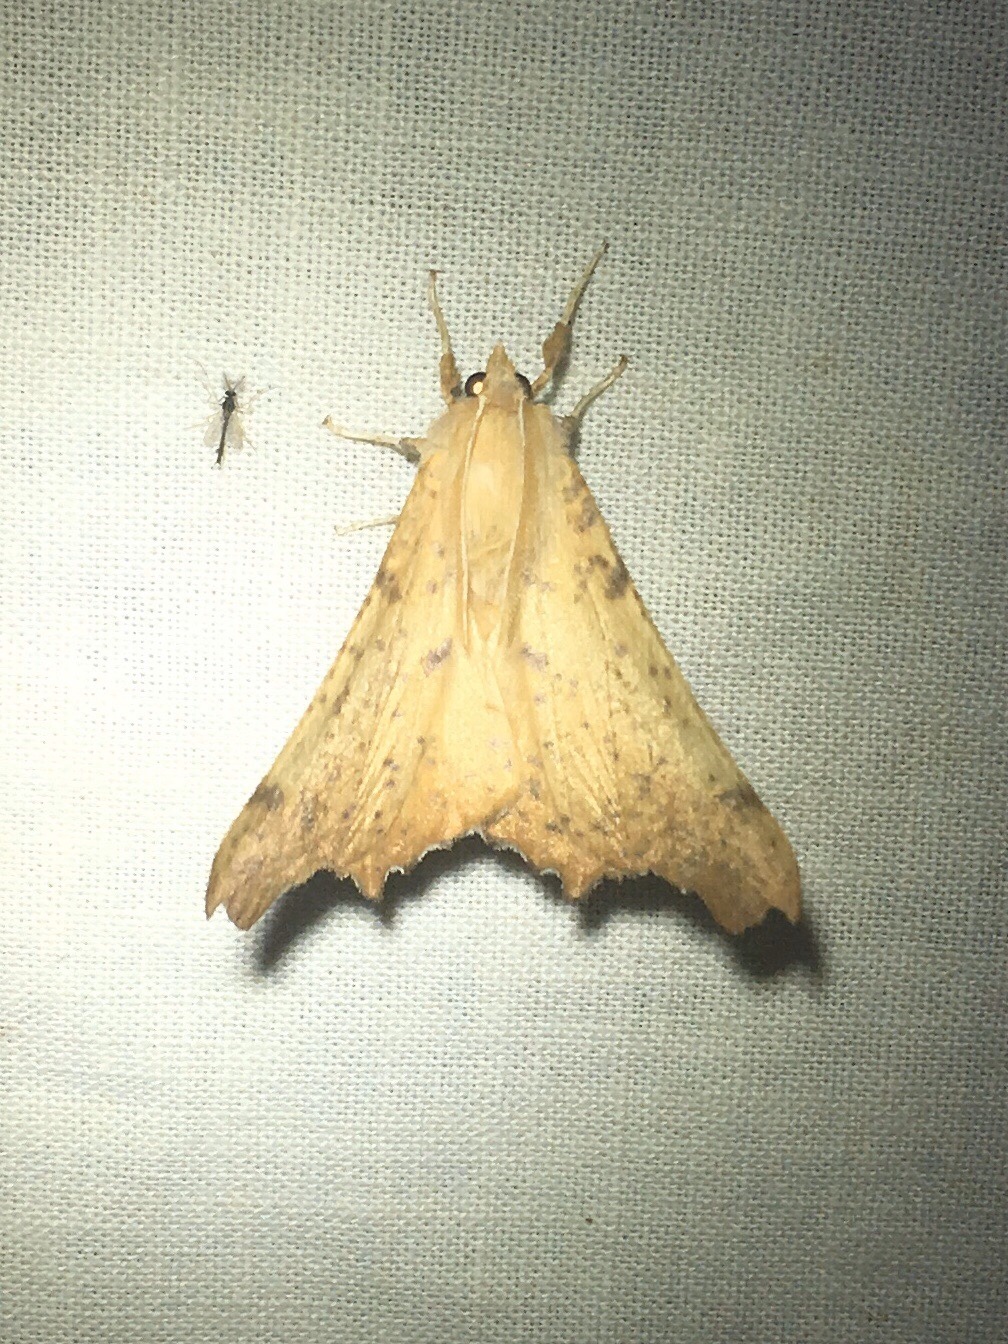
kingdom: Animalia
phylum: Arthropoda
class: Insecta
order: Lepidoptera
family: Geometridae
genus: Ennomos
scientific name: Ennomos magnaria
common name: Maple spanworm
